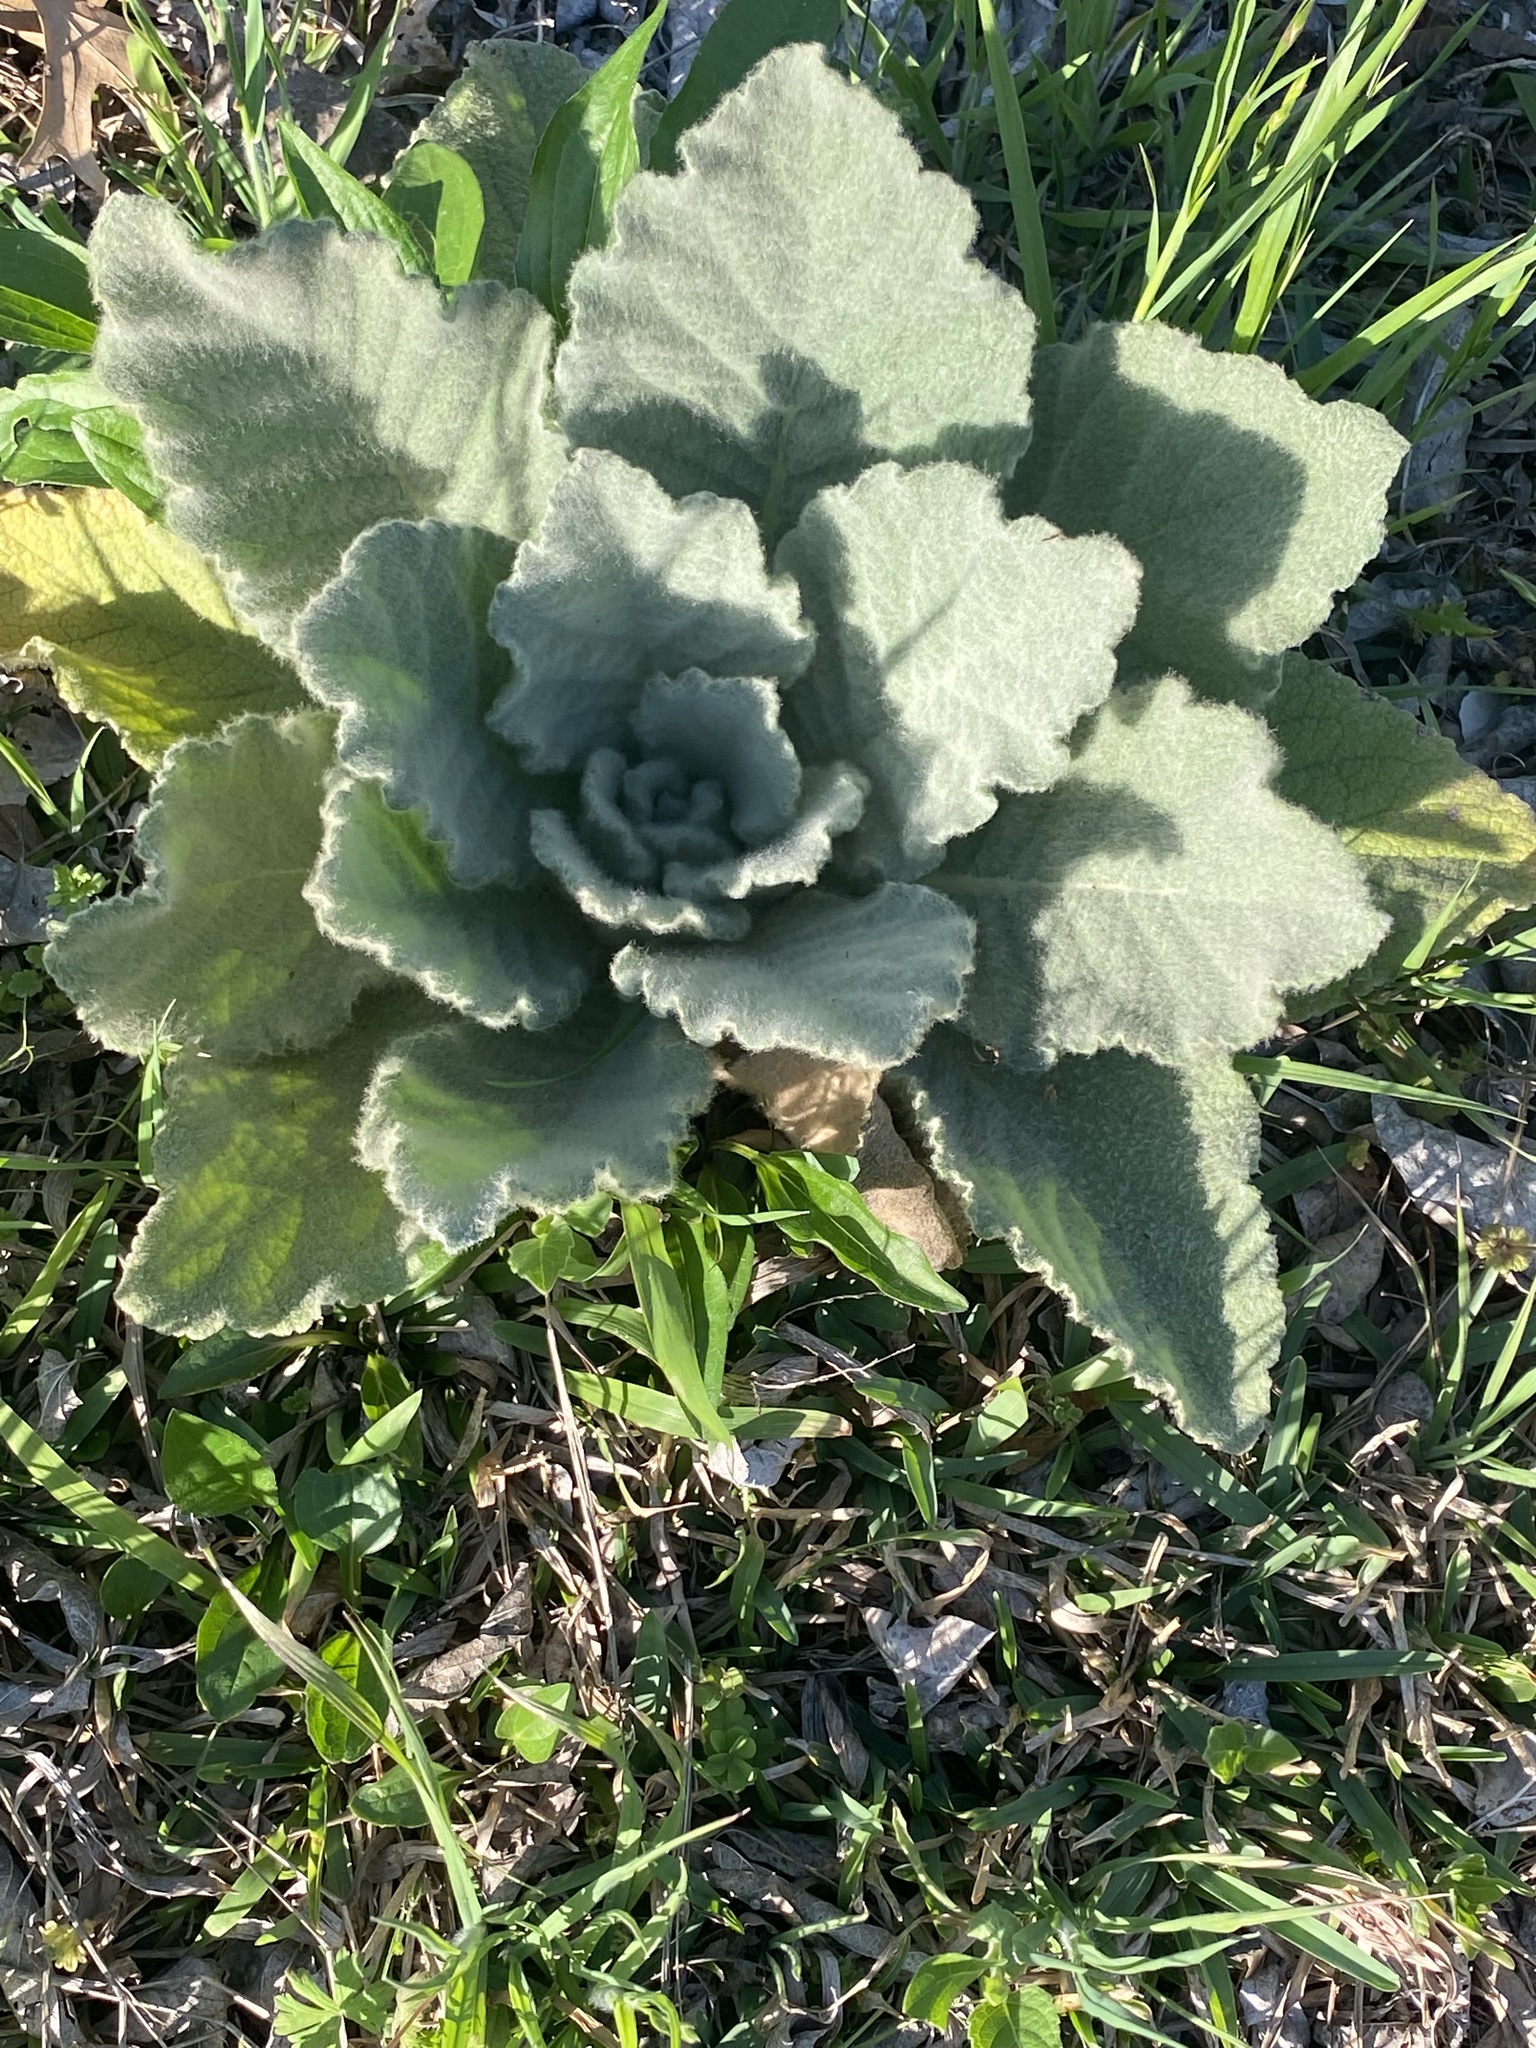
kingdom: Plantae
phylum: Tracheophyta
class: Magnoliopsida
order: Lamiales
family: Scrophulariaceae
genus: Verbascum
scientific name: Verbascum thapsus
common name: Common mullein
